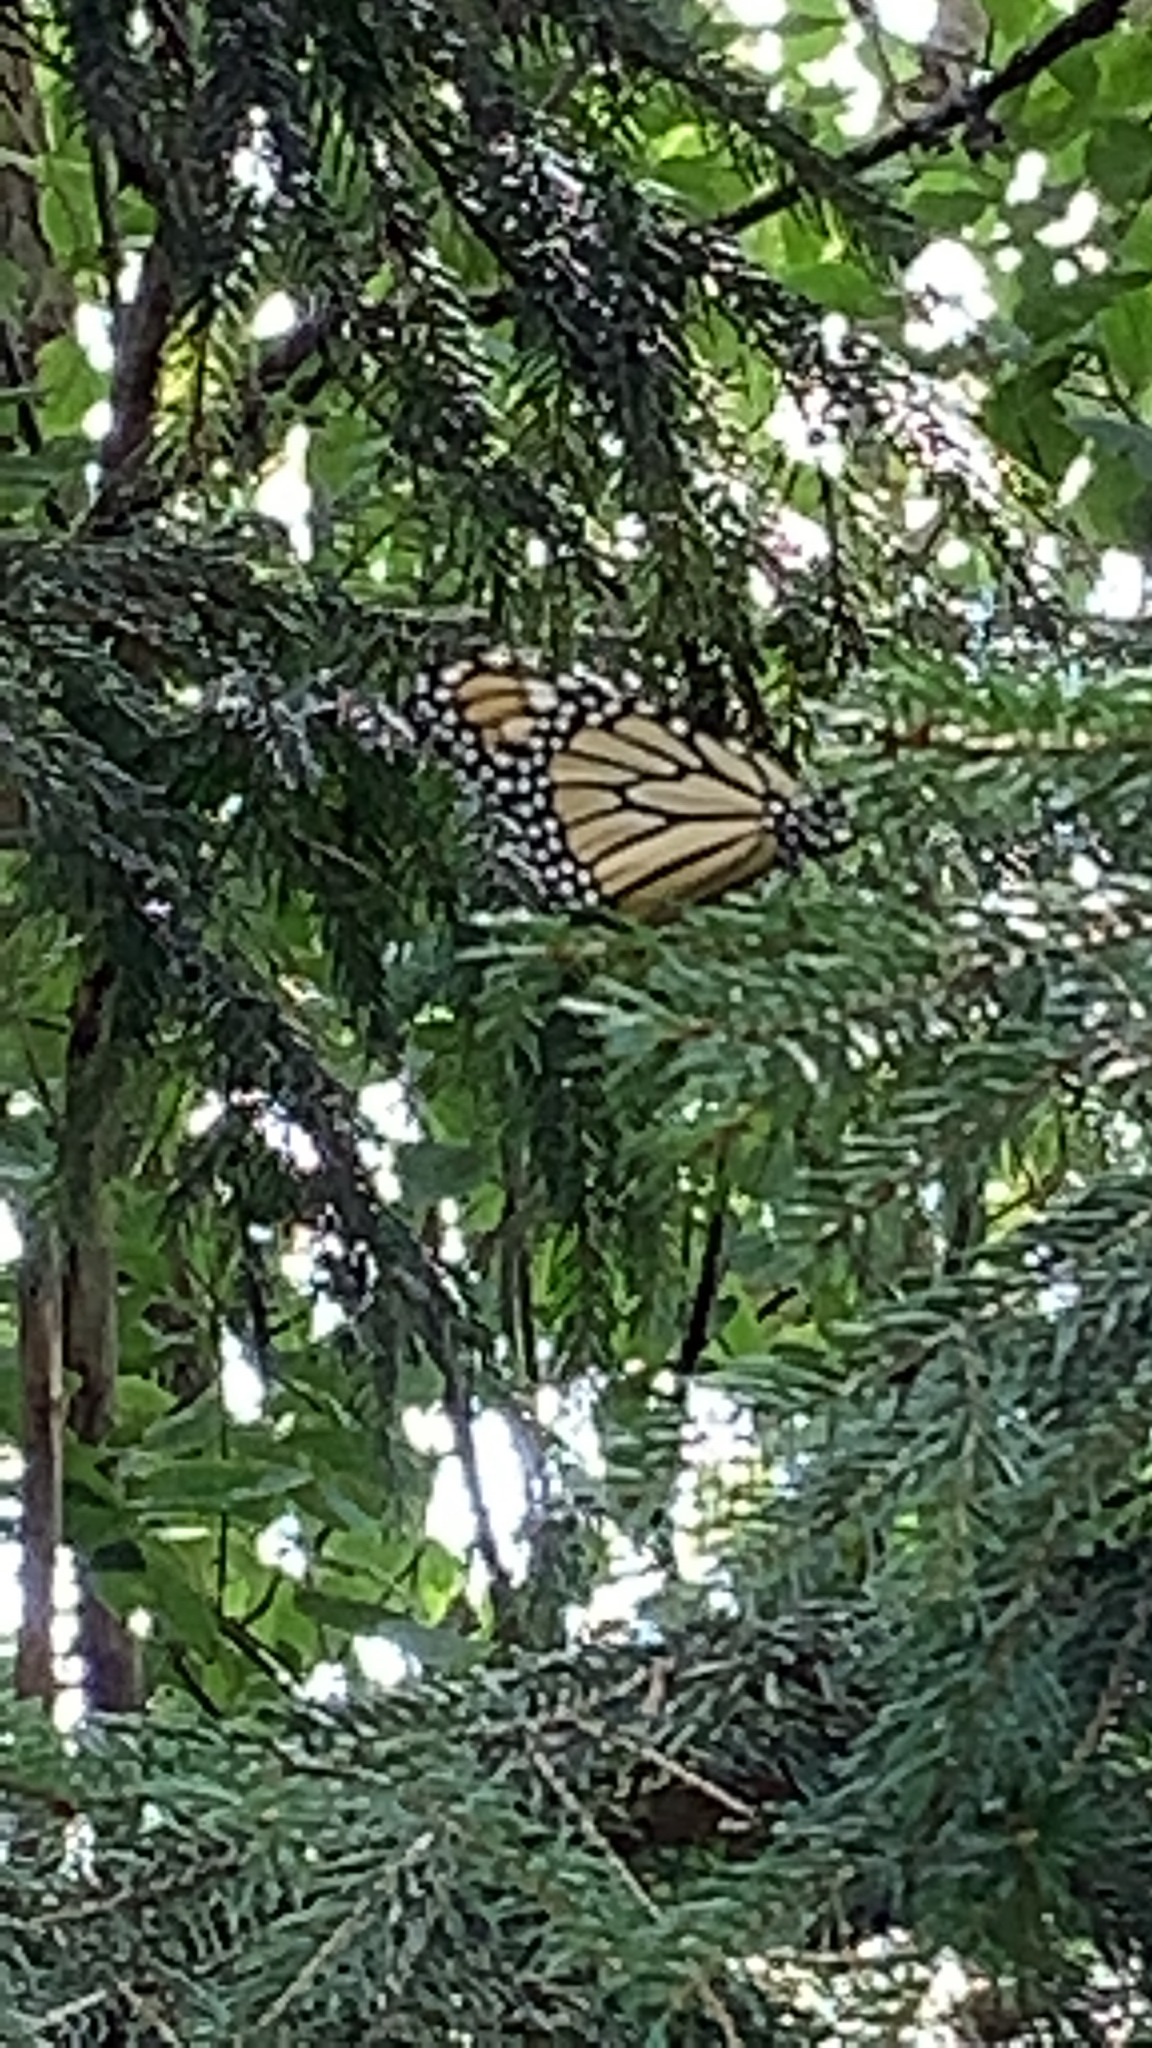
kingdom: Animalia
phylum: Arthropoda
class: Insecta
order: Lepidoptera
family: Nymphalidae
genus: Danaus
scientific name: Danaus plexippus
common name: Monarch
